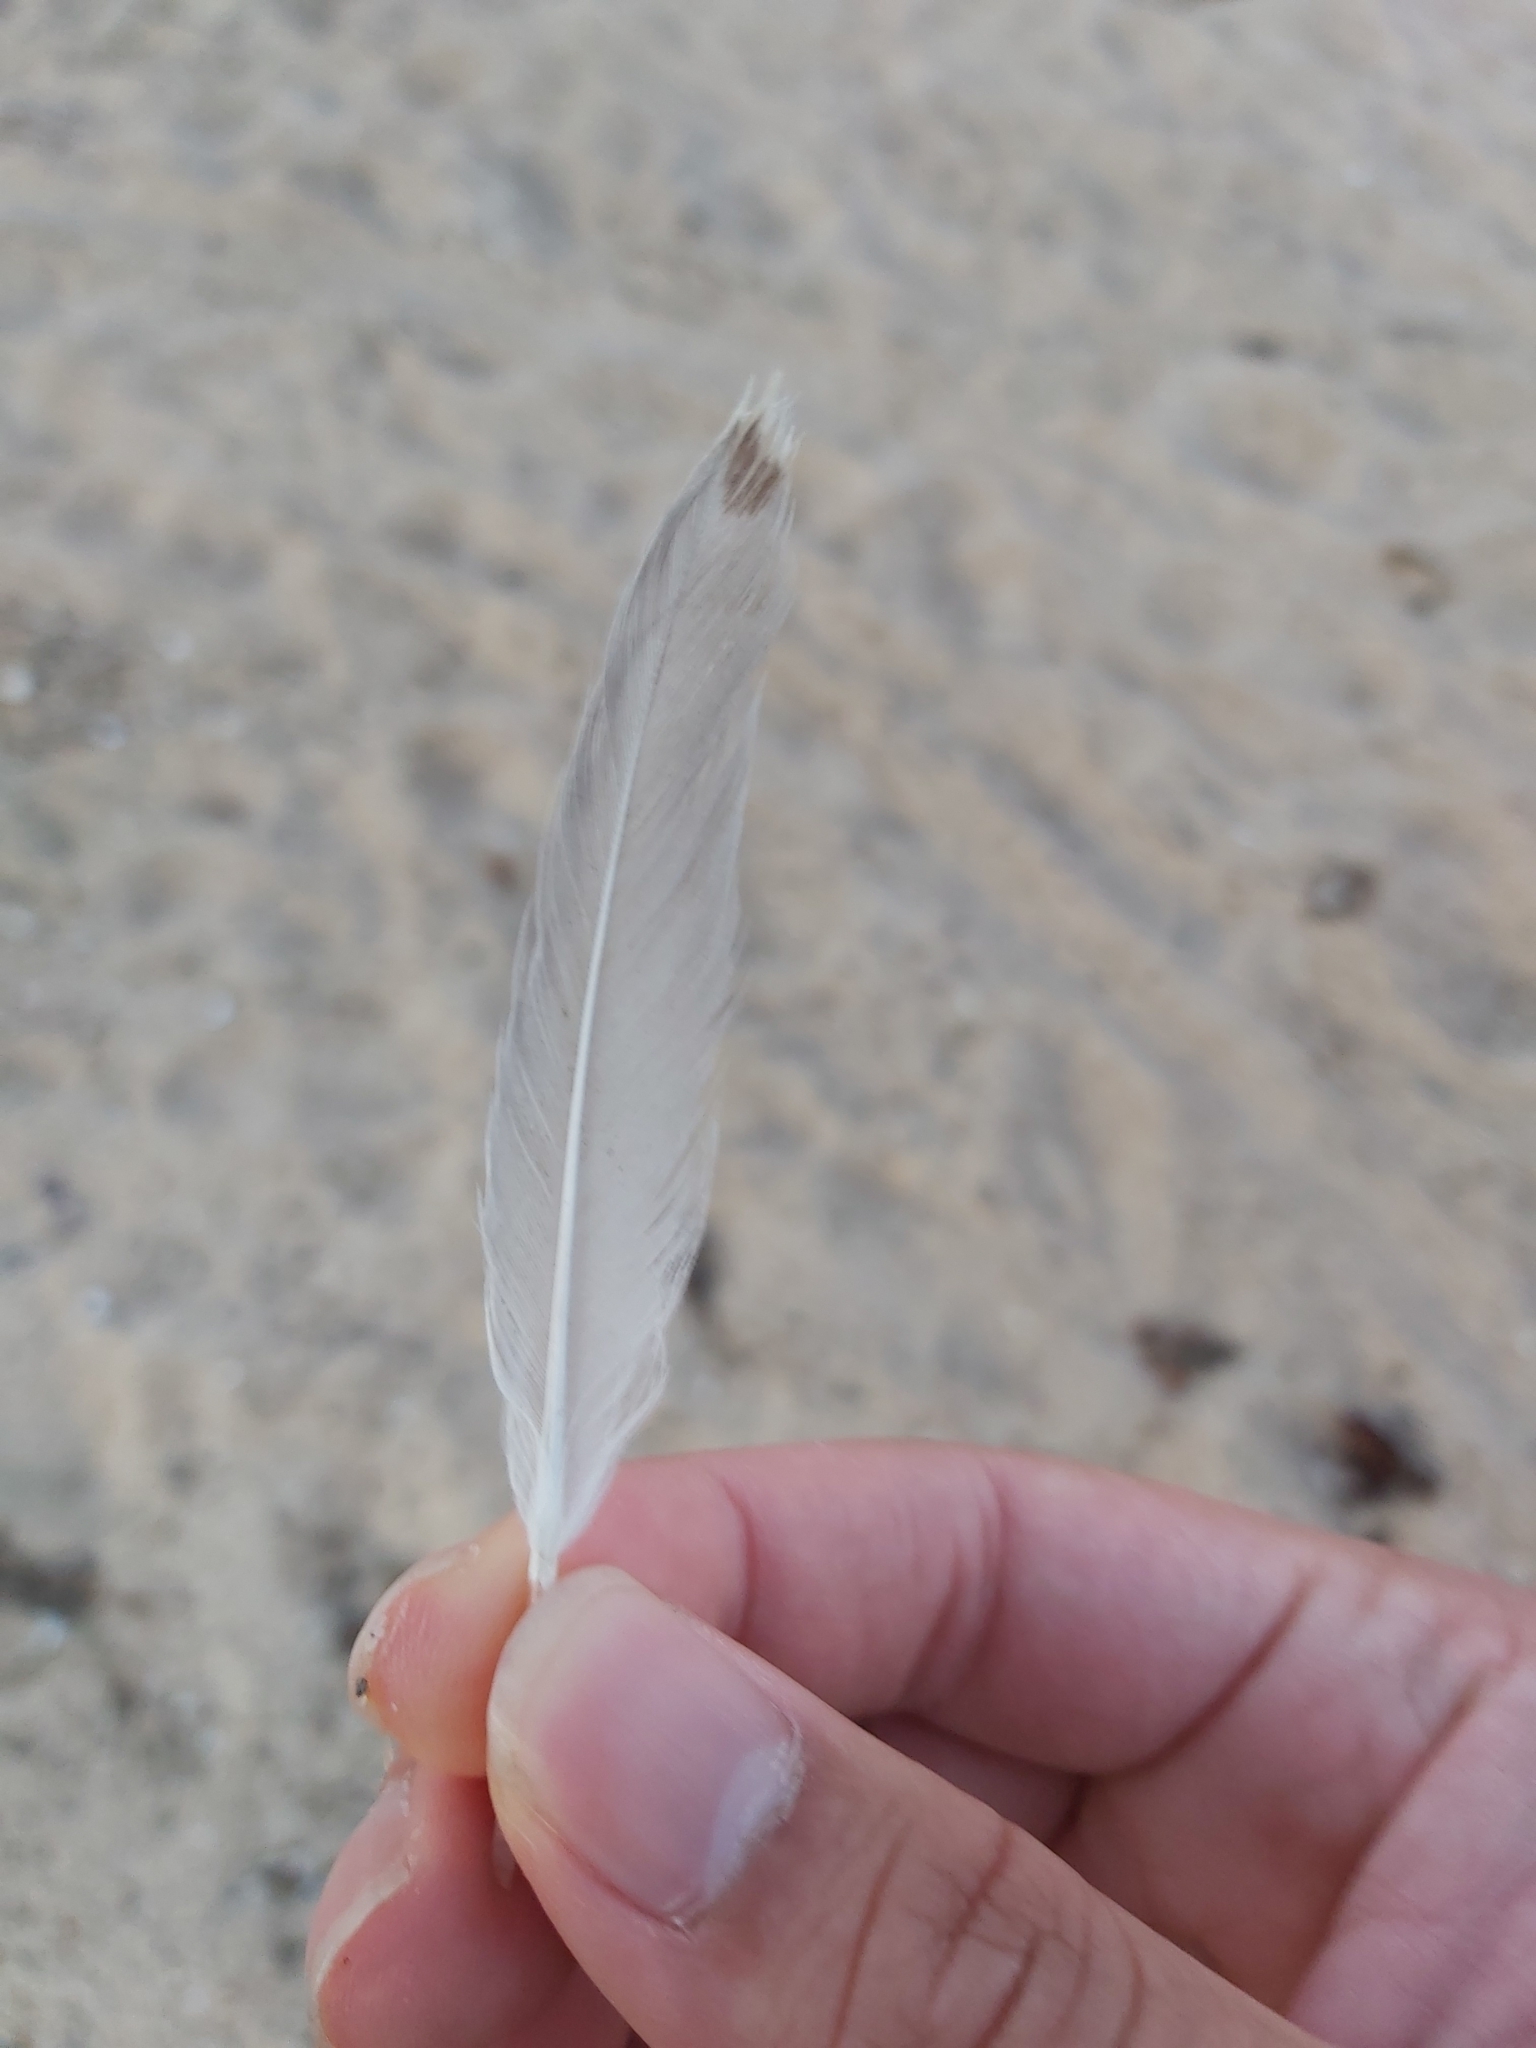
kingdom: Animalia
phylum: Chordata
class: Aves
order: Charadriiformes
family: Laridae
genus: Chroicocephalus
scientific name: Chroicocephalus novaehollandiae
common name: Silver gull
